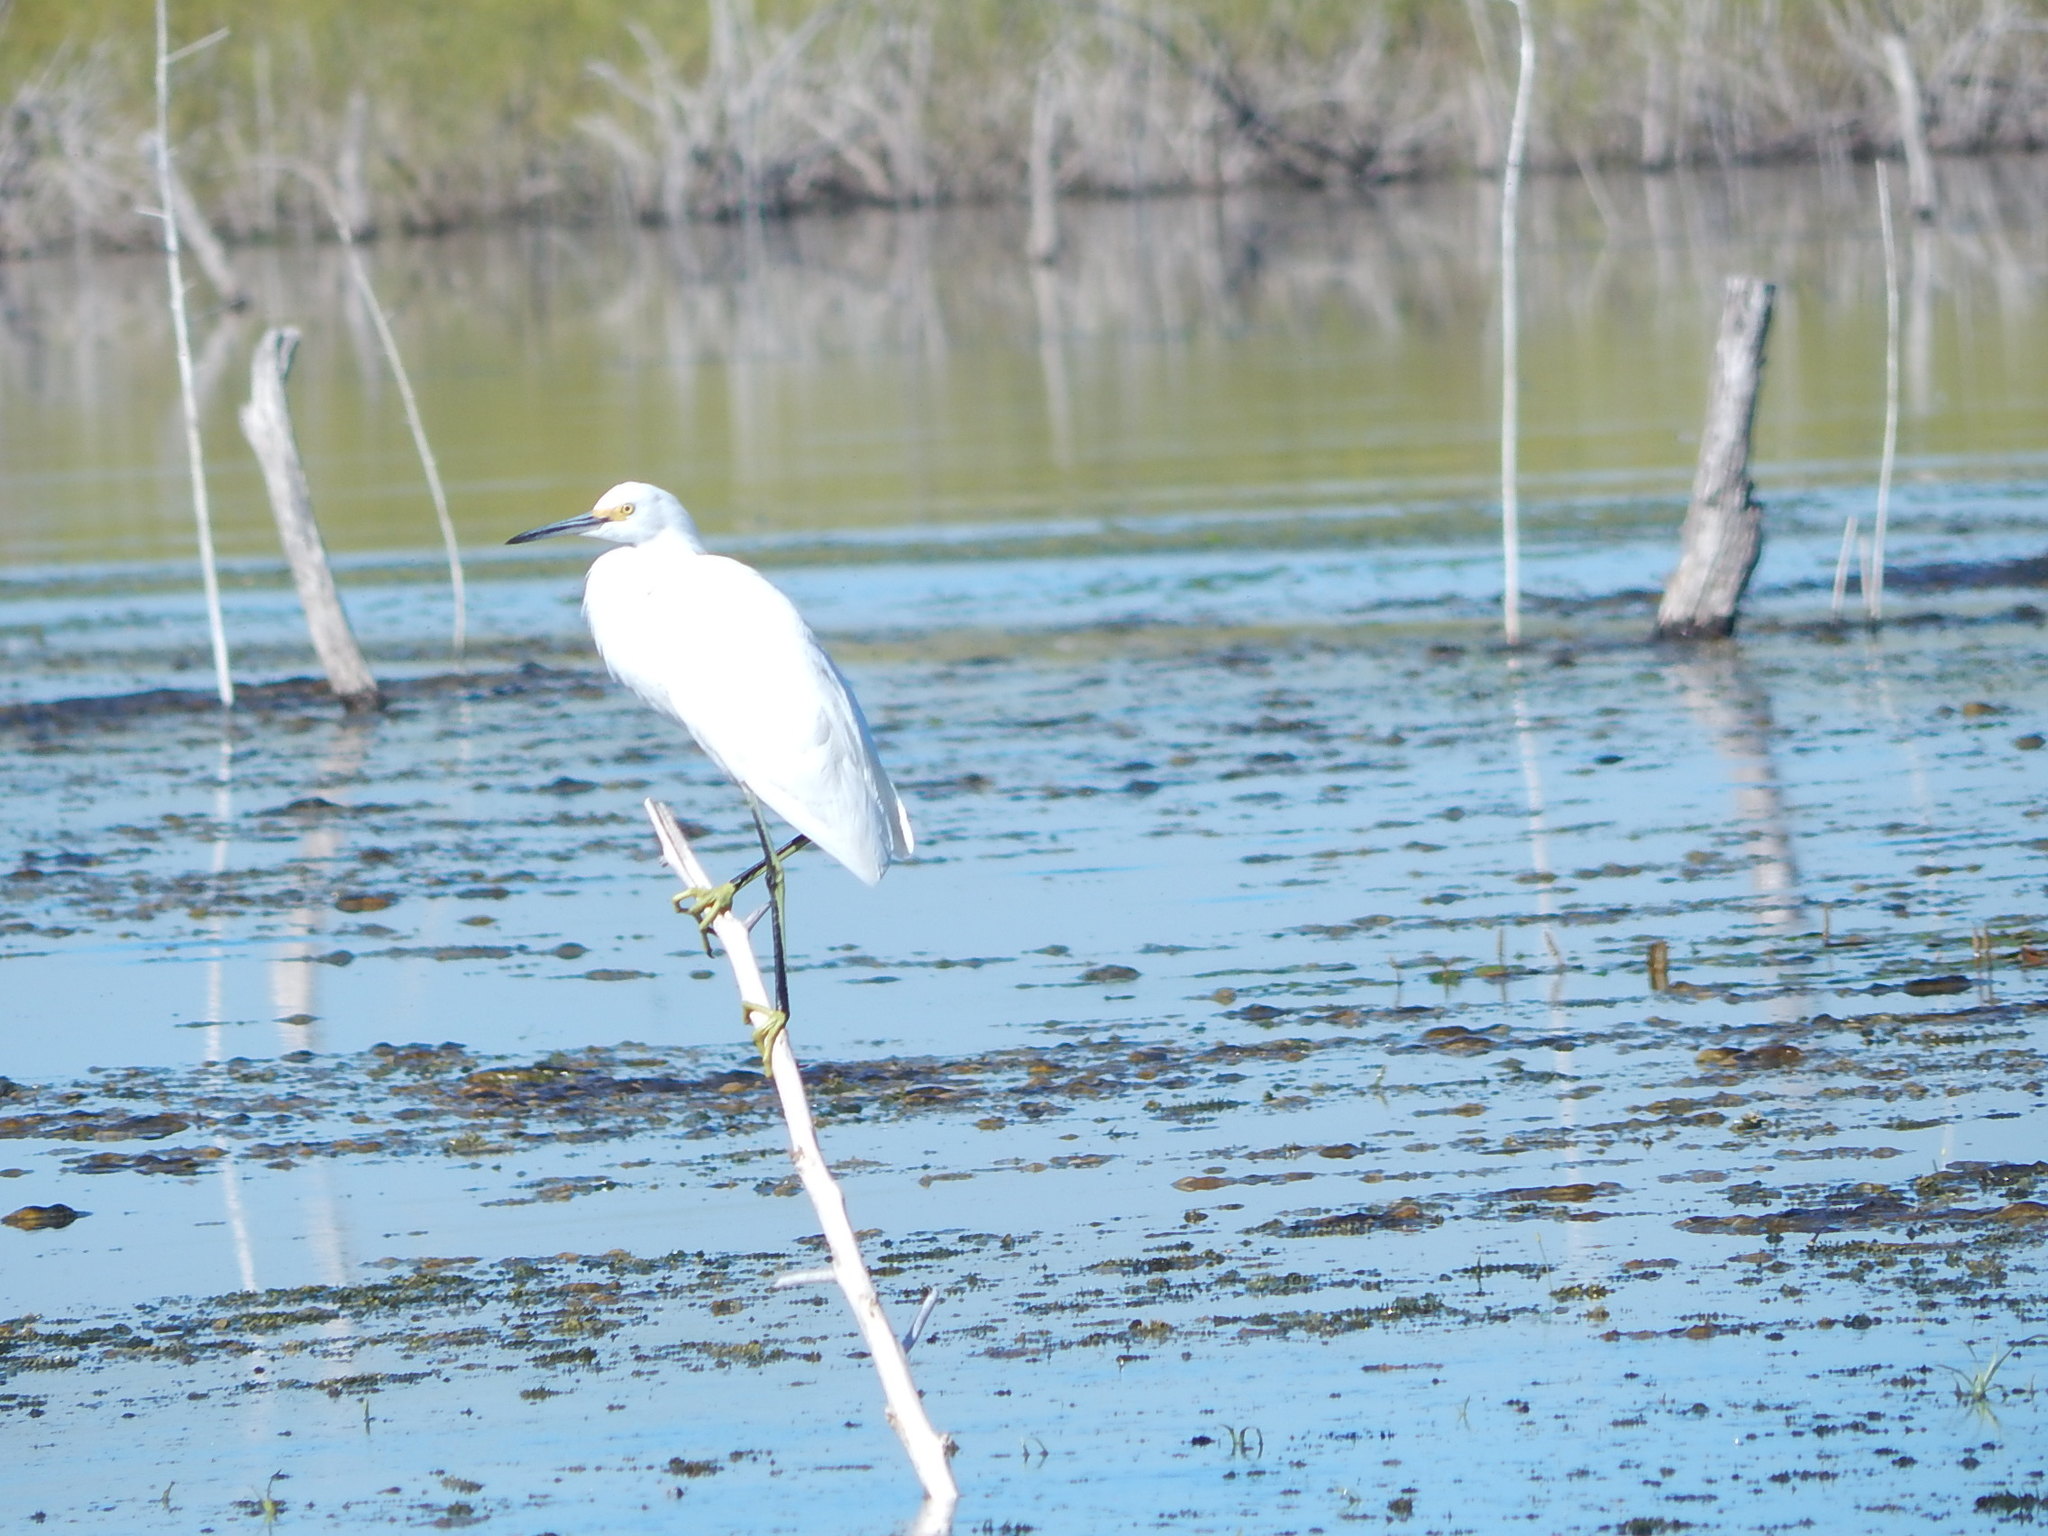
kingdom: Animalia
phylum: Chordata
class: Aves
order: Pelecaniformes
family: Ardeidae
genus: Egretta
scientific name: Egretta thula
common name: Snowy egret
